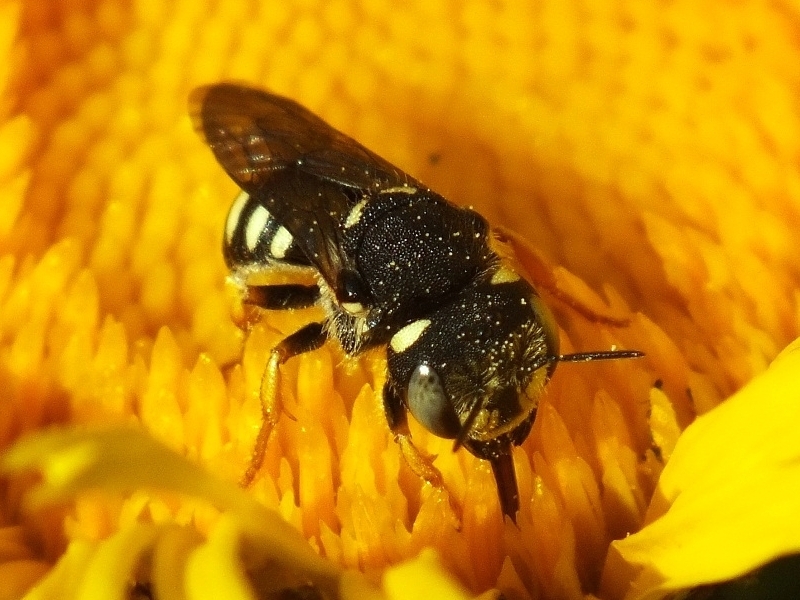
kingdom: Animalia
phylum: Arthropoda
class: Insecta
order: Hymenoptera
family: Megachilidae
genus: Pseudoanthidium
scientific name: Pseudoanthidium nanum
